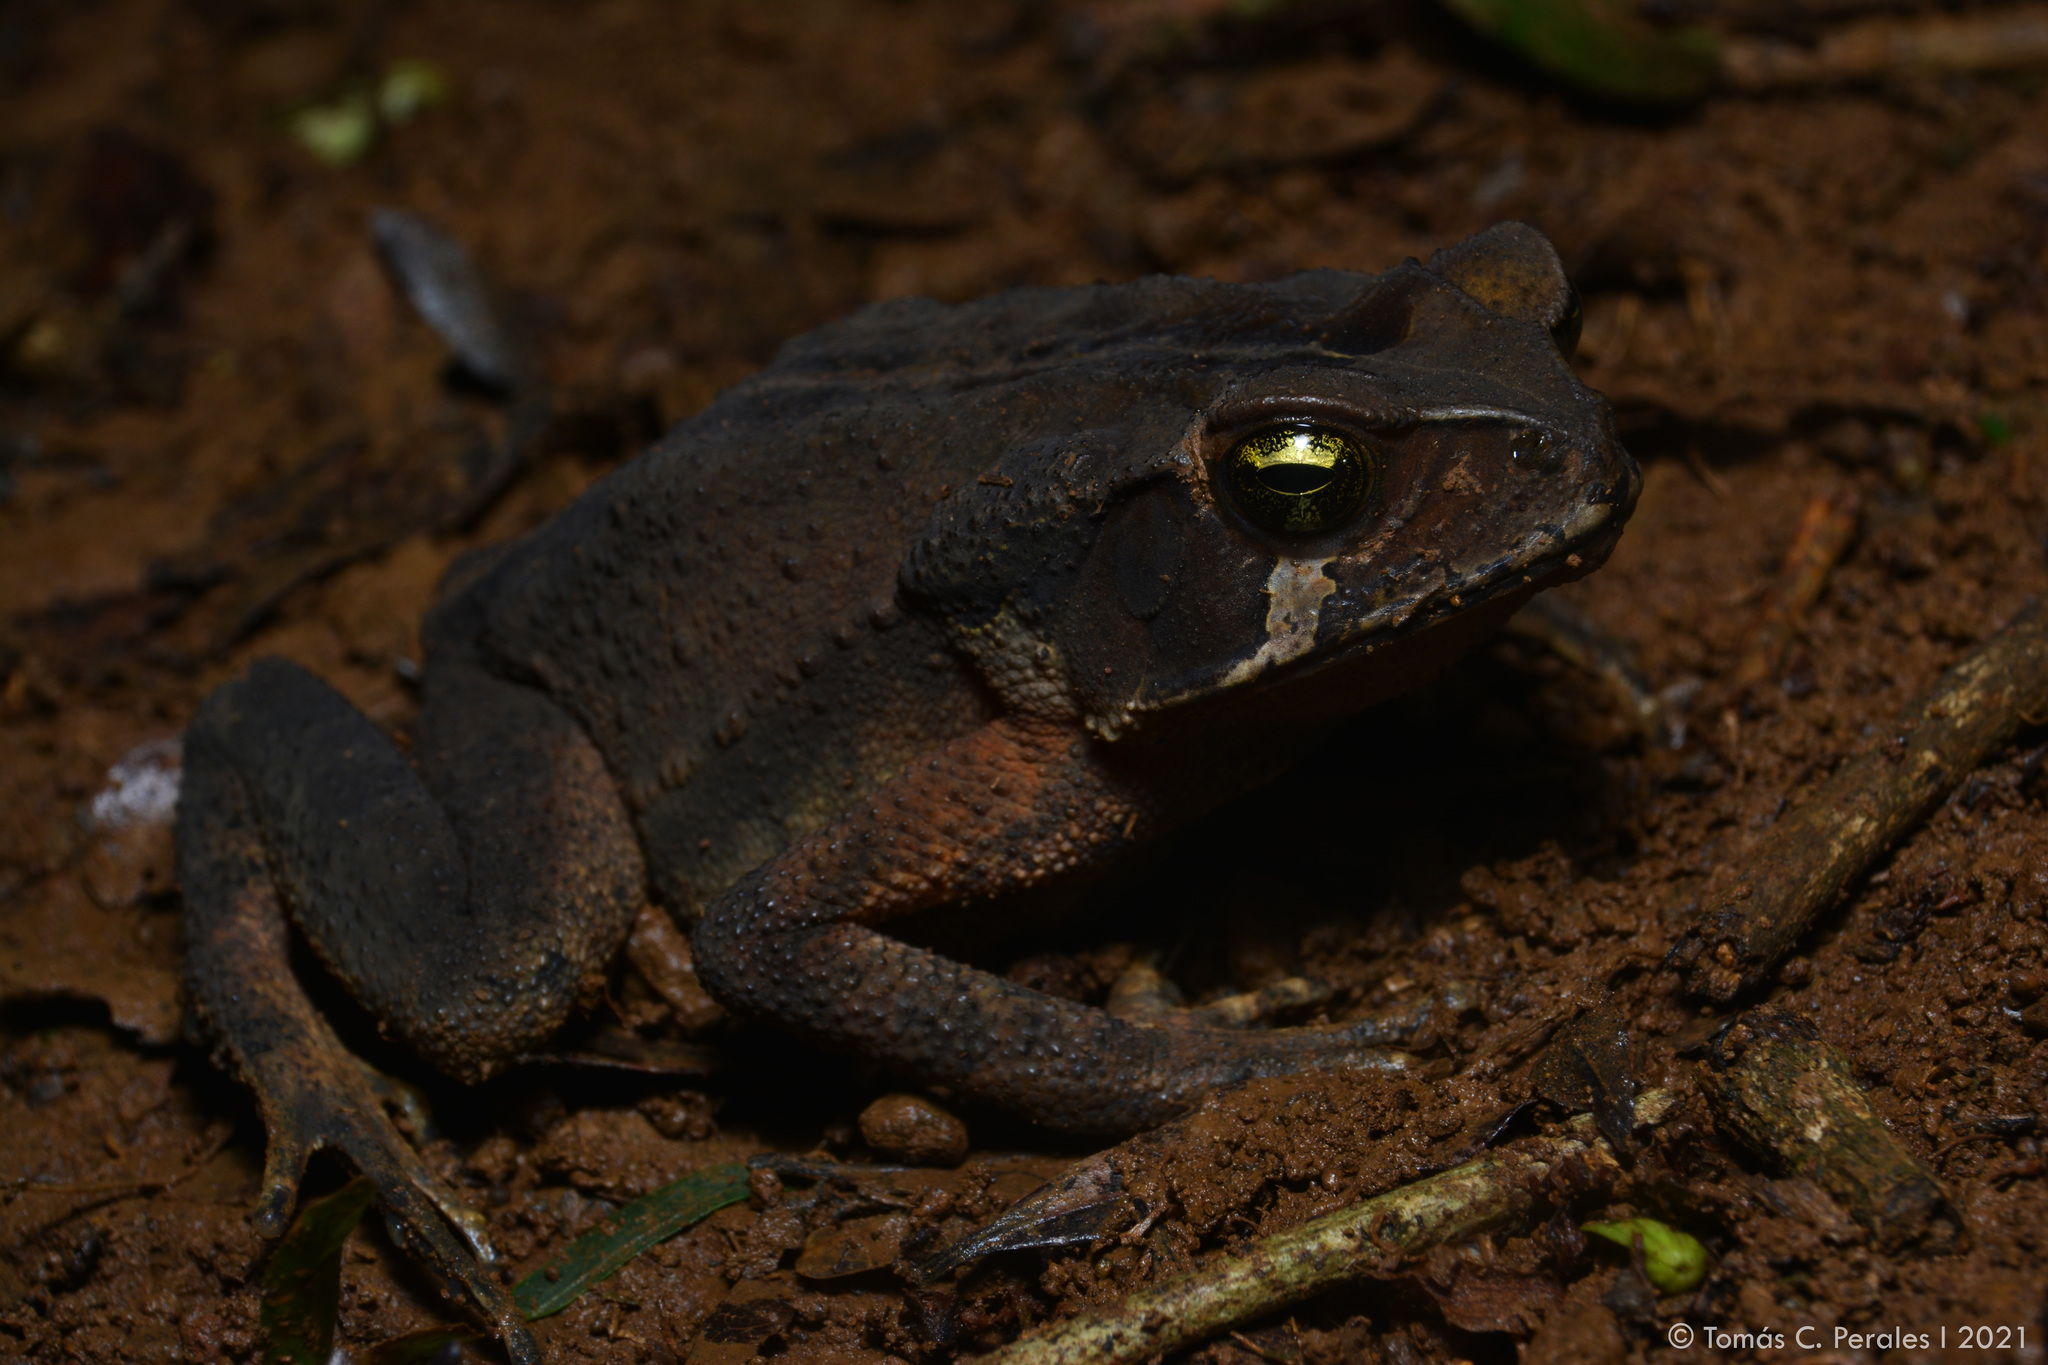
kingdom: Animalia
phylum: Chordata
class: Amphibia
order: Anura
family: Bufonidae
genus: Rhinella
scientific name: Rhinella ornata
